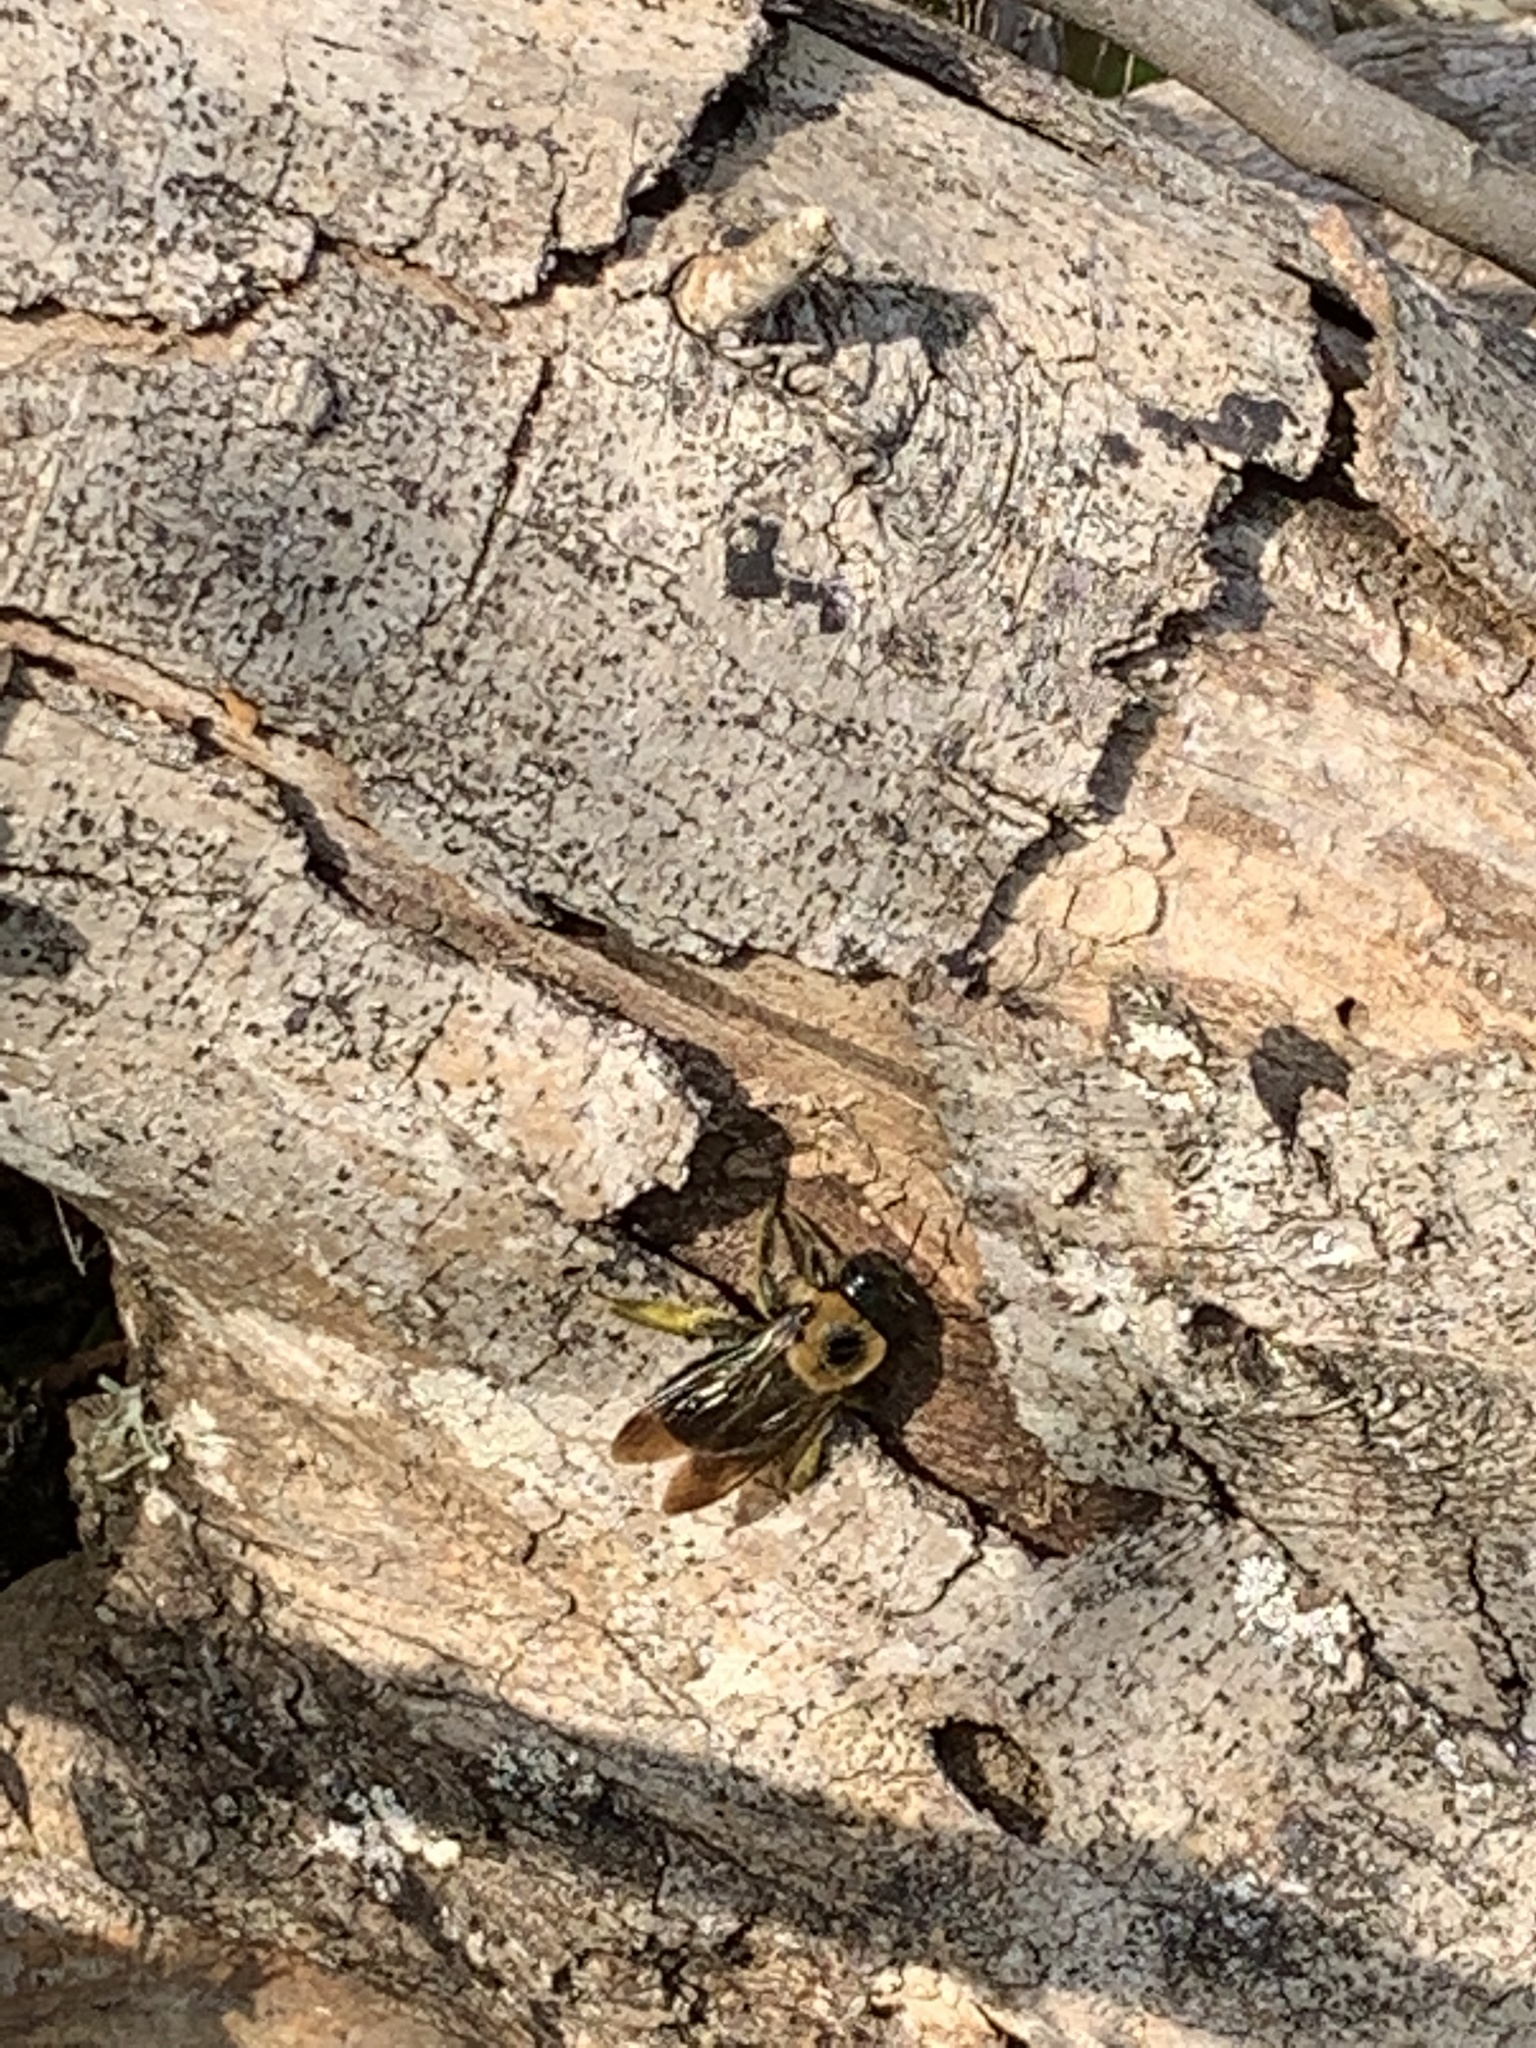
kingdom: Animalia
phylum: Arthropoda
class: Insecta
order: Hymenoptera
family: Apidae
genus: Xylocopa
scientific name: Xylocopa virginica
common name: Carpenter bee
